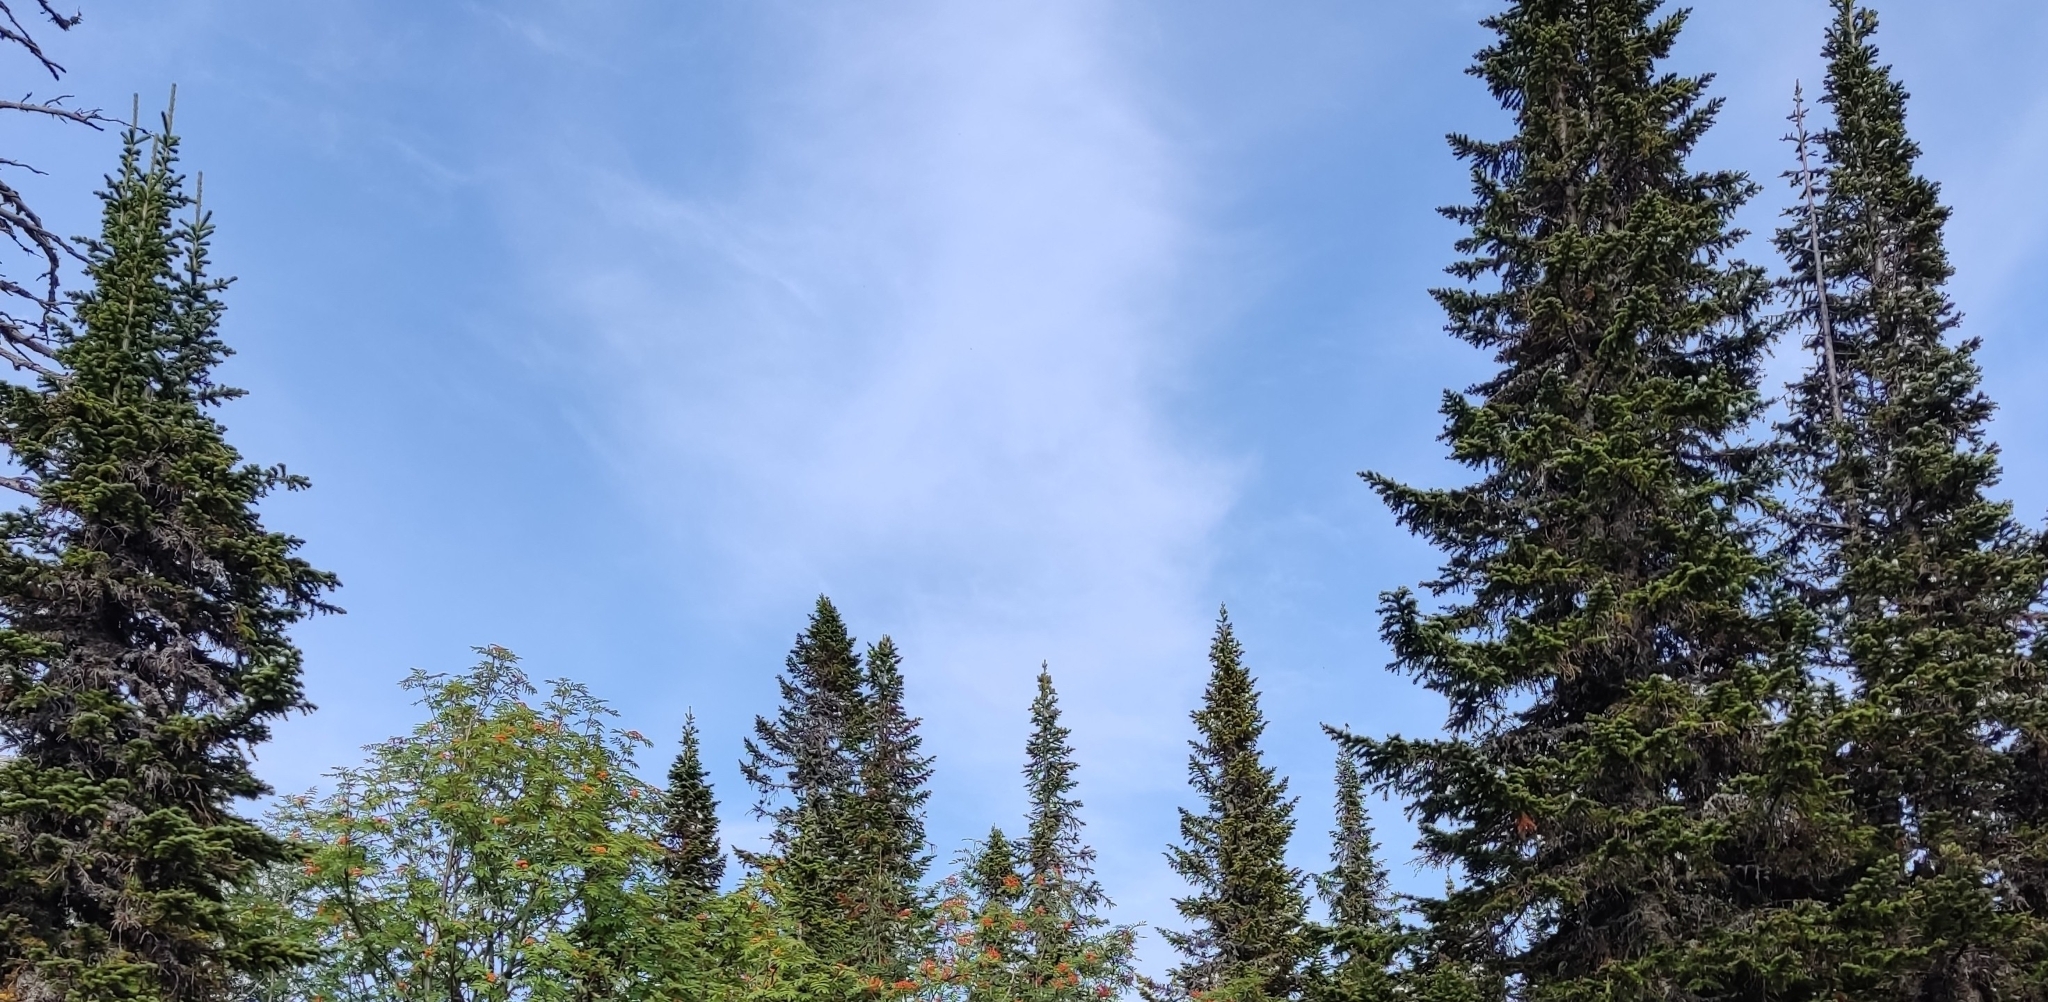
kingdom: Plantae
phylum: Tracheophyta
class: Pinopsida
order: Pinales
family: Pinaceae
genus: Picea
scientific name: Picea obovata
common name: Siberian spruce
